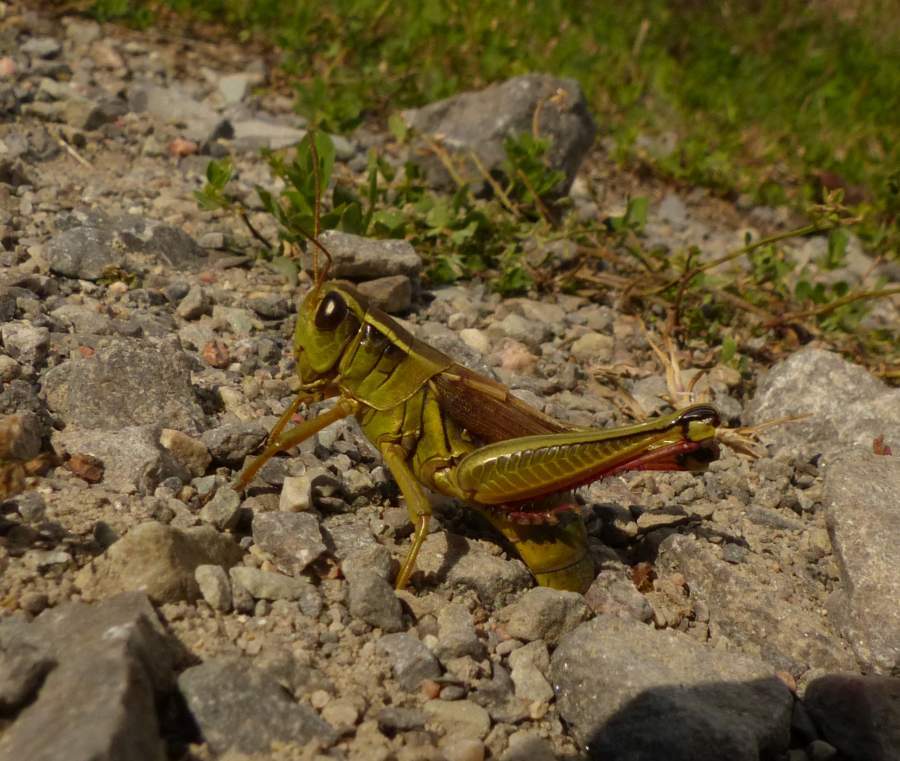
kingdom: Animalia
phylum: Arthropoda
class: Insecta
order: Orthoptera
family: Acrididae
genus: Melanoplus
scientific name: Melanoplus bivittatus
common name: Two-striped grasshopper
